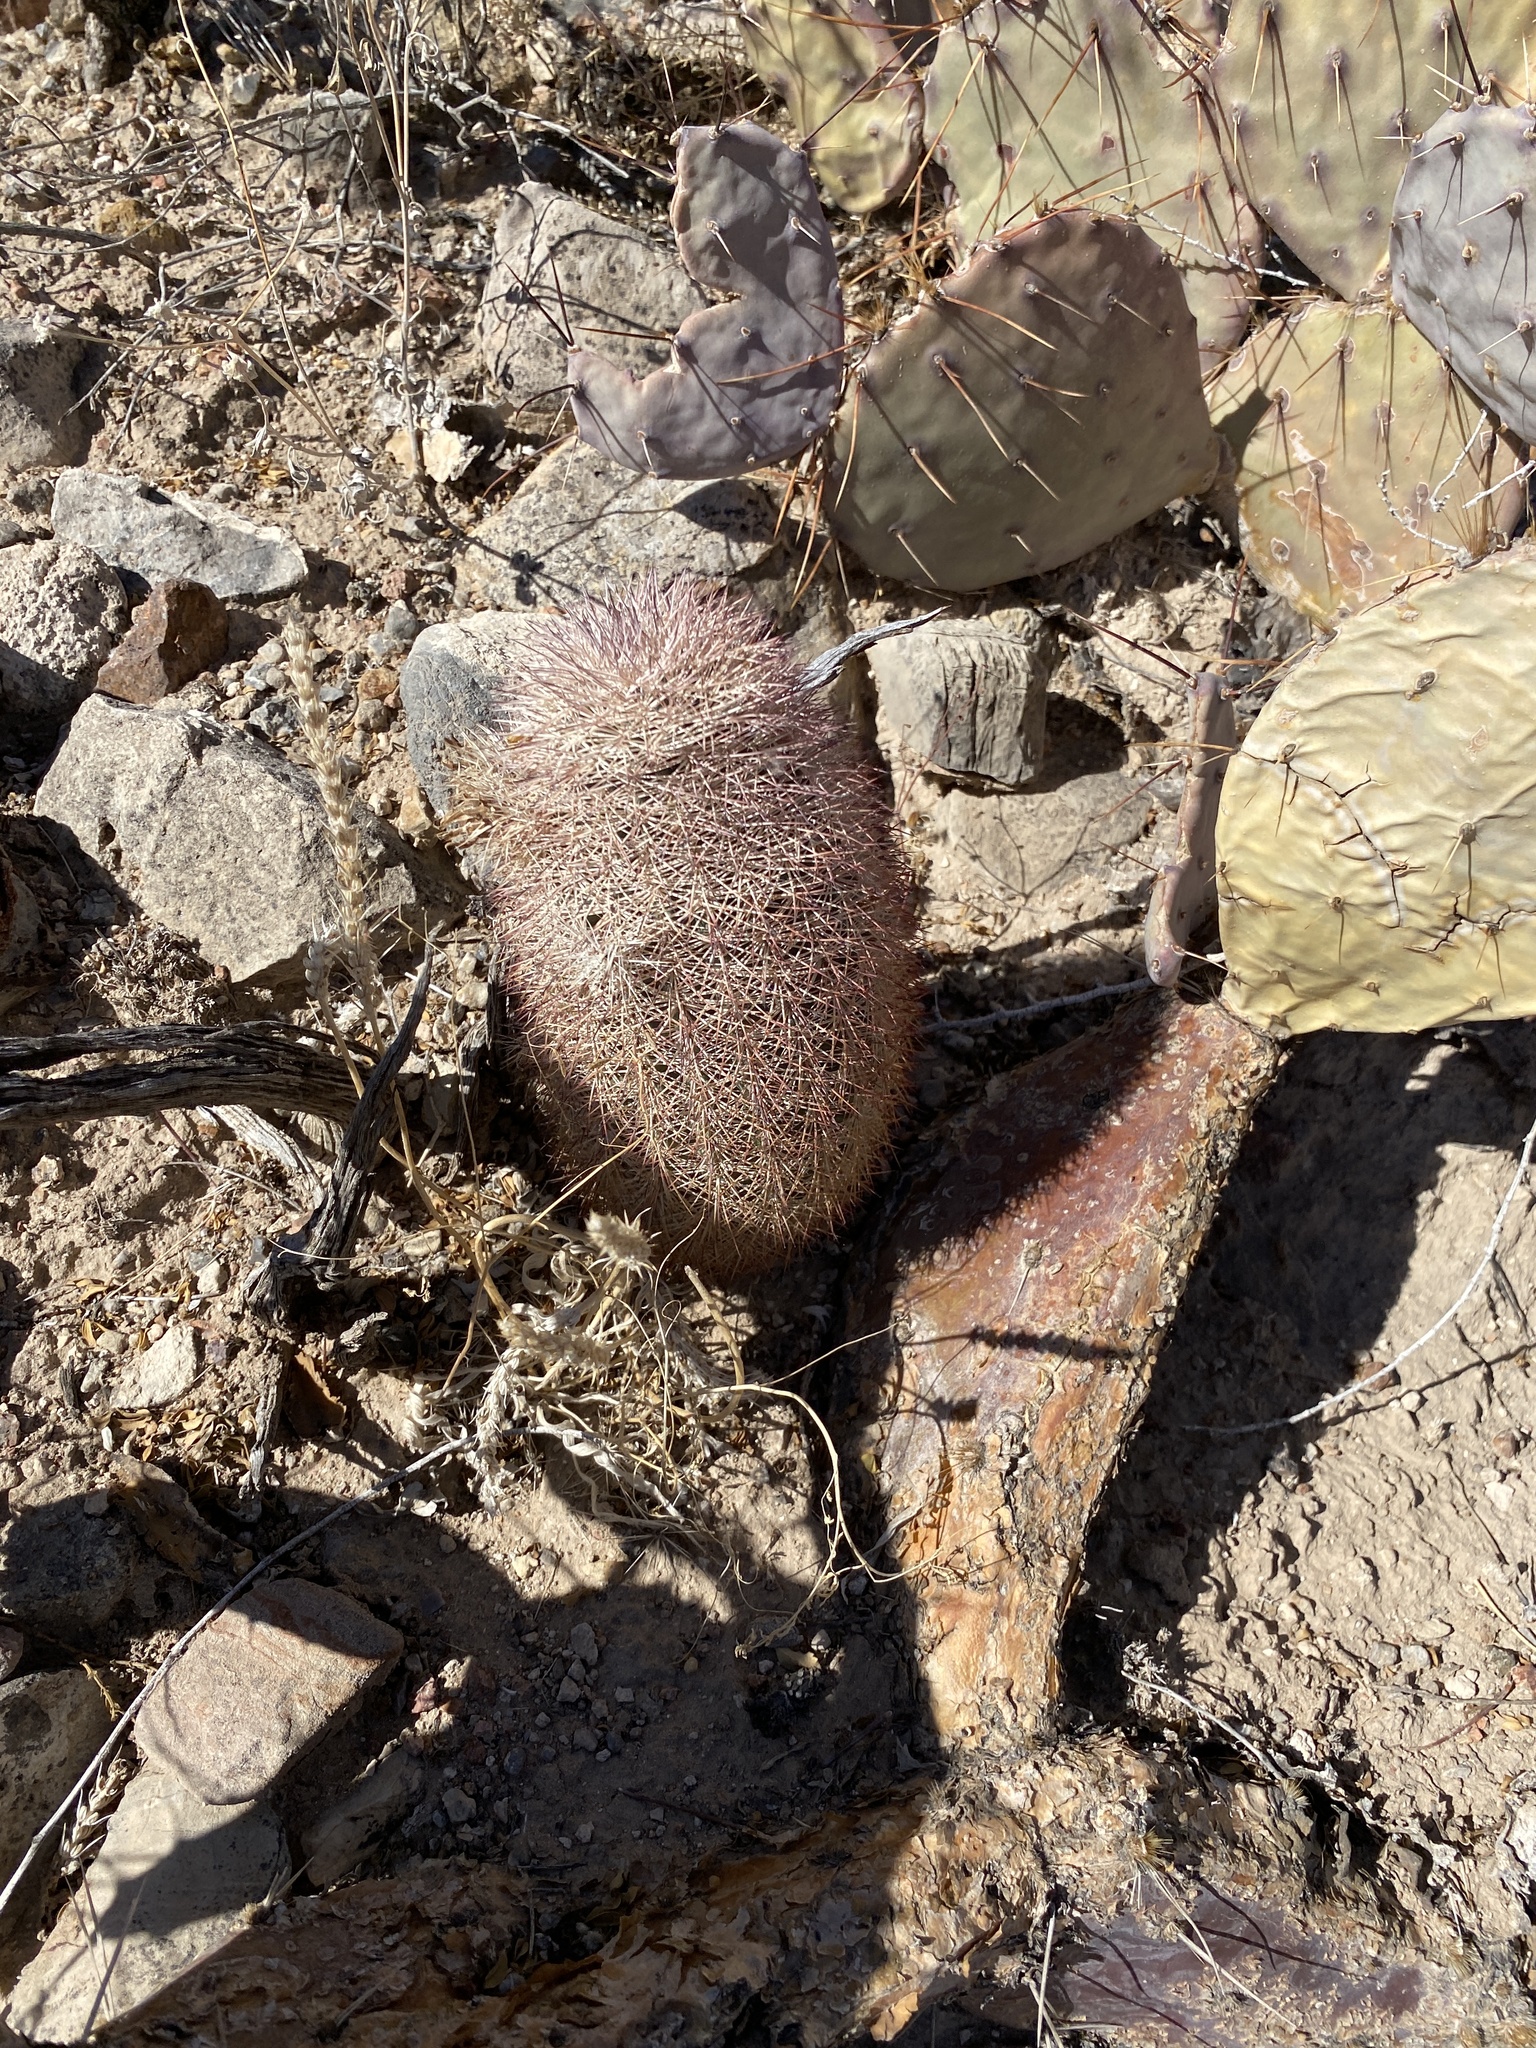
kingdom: Plantae
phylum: Tracheophyta
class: Magnoliopsida
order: Caryophyllales
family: Cactaceae
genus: Echinocereus
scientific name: Echinocereus dasyacanthus
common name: Spiny hedgehog cactus
